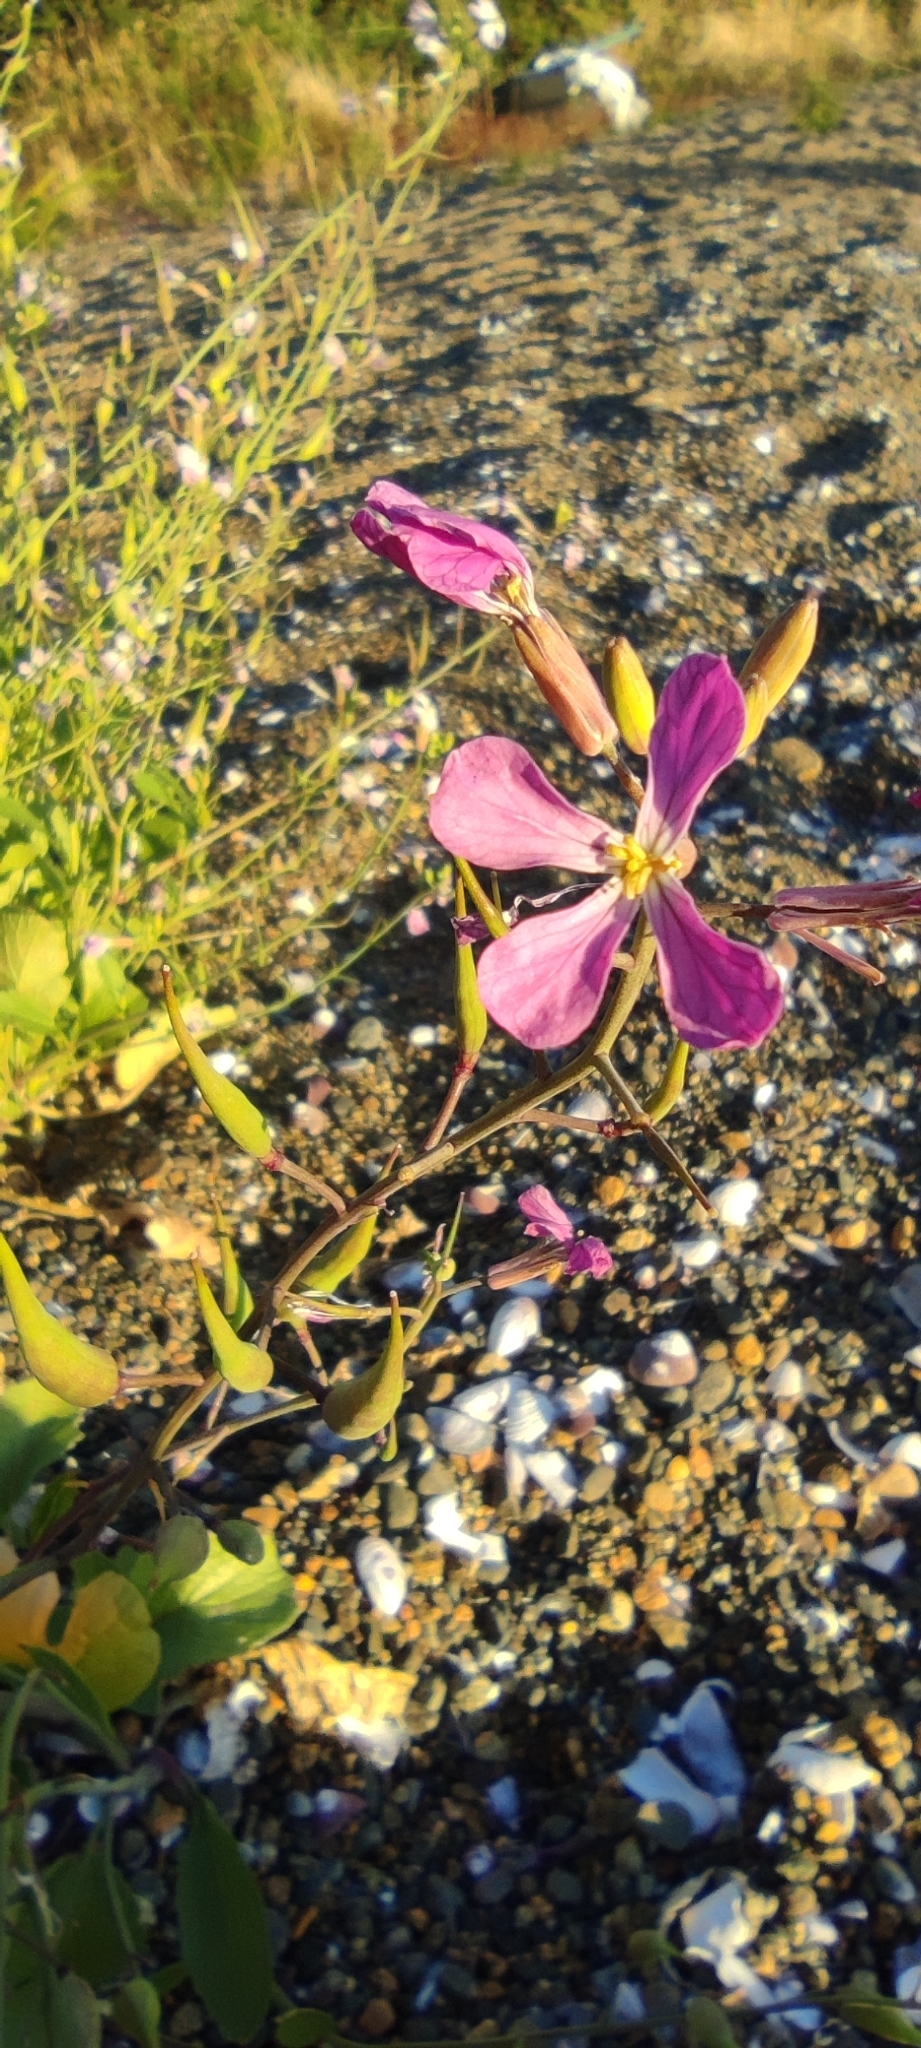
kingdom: Plantae
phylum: Tracheophyta
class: Magnoliopsida
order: Brassicales
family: Brassicaceae
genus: Raphanus
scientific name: Raphanus sativus
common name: Cultivated radish
